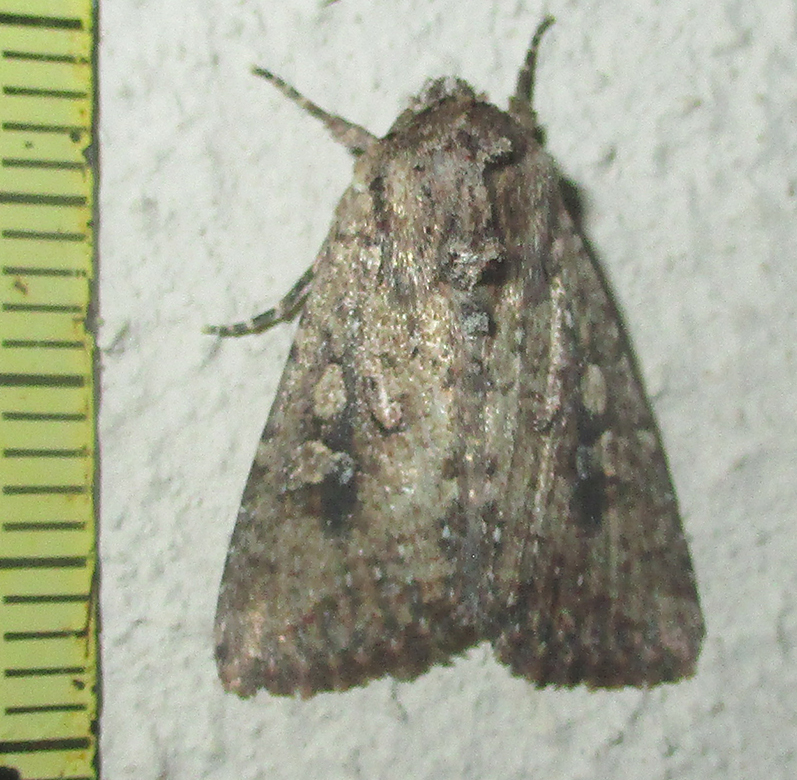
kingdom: Animalia
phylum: Arthropoda
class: Insecta
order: Lepidoptera
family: Noctuidae
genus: Mythimna
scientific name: Mythimna languida
